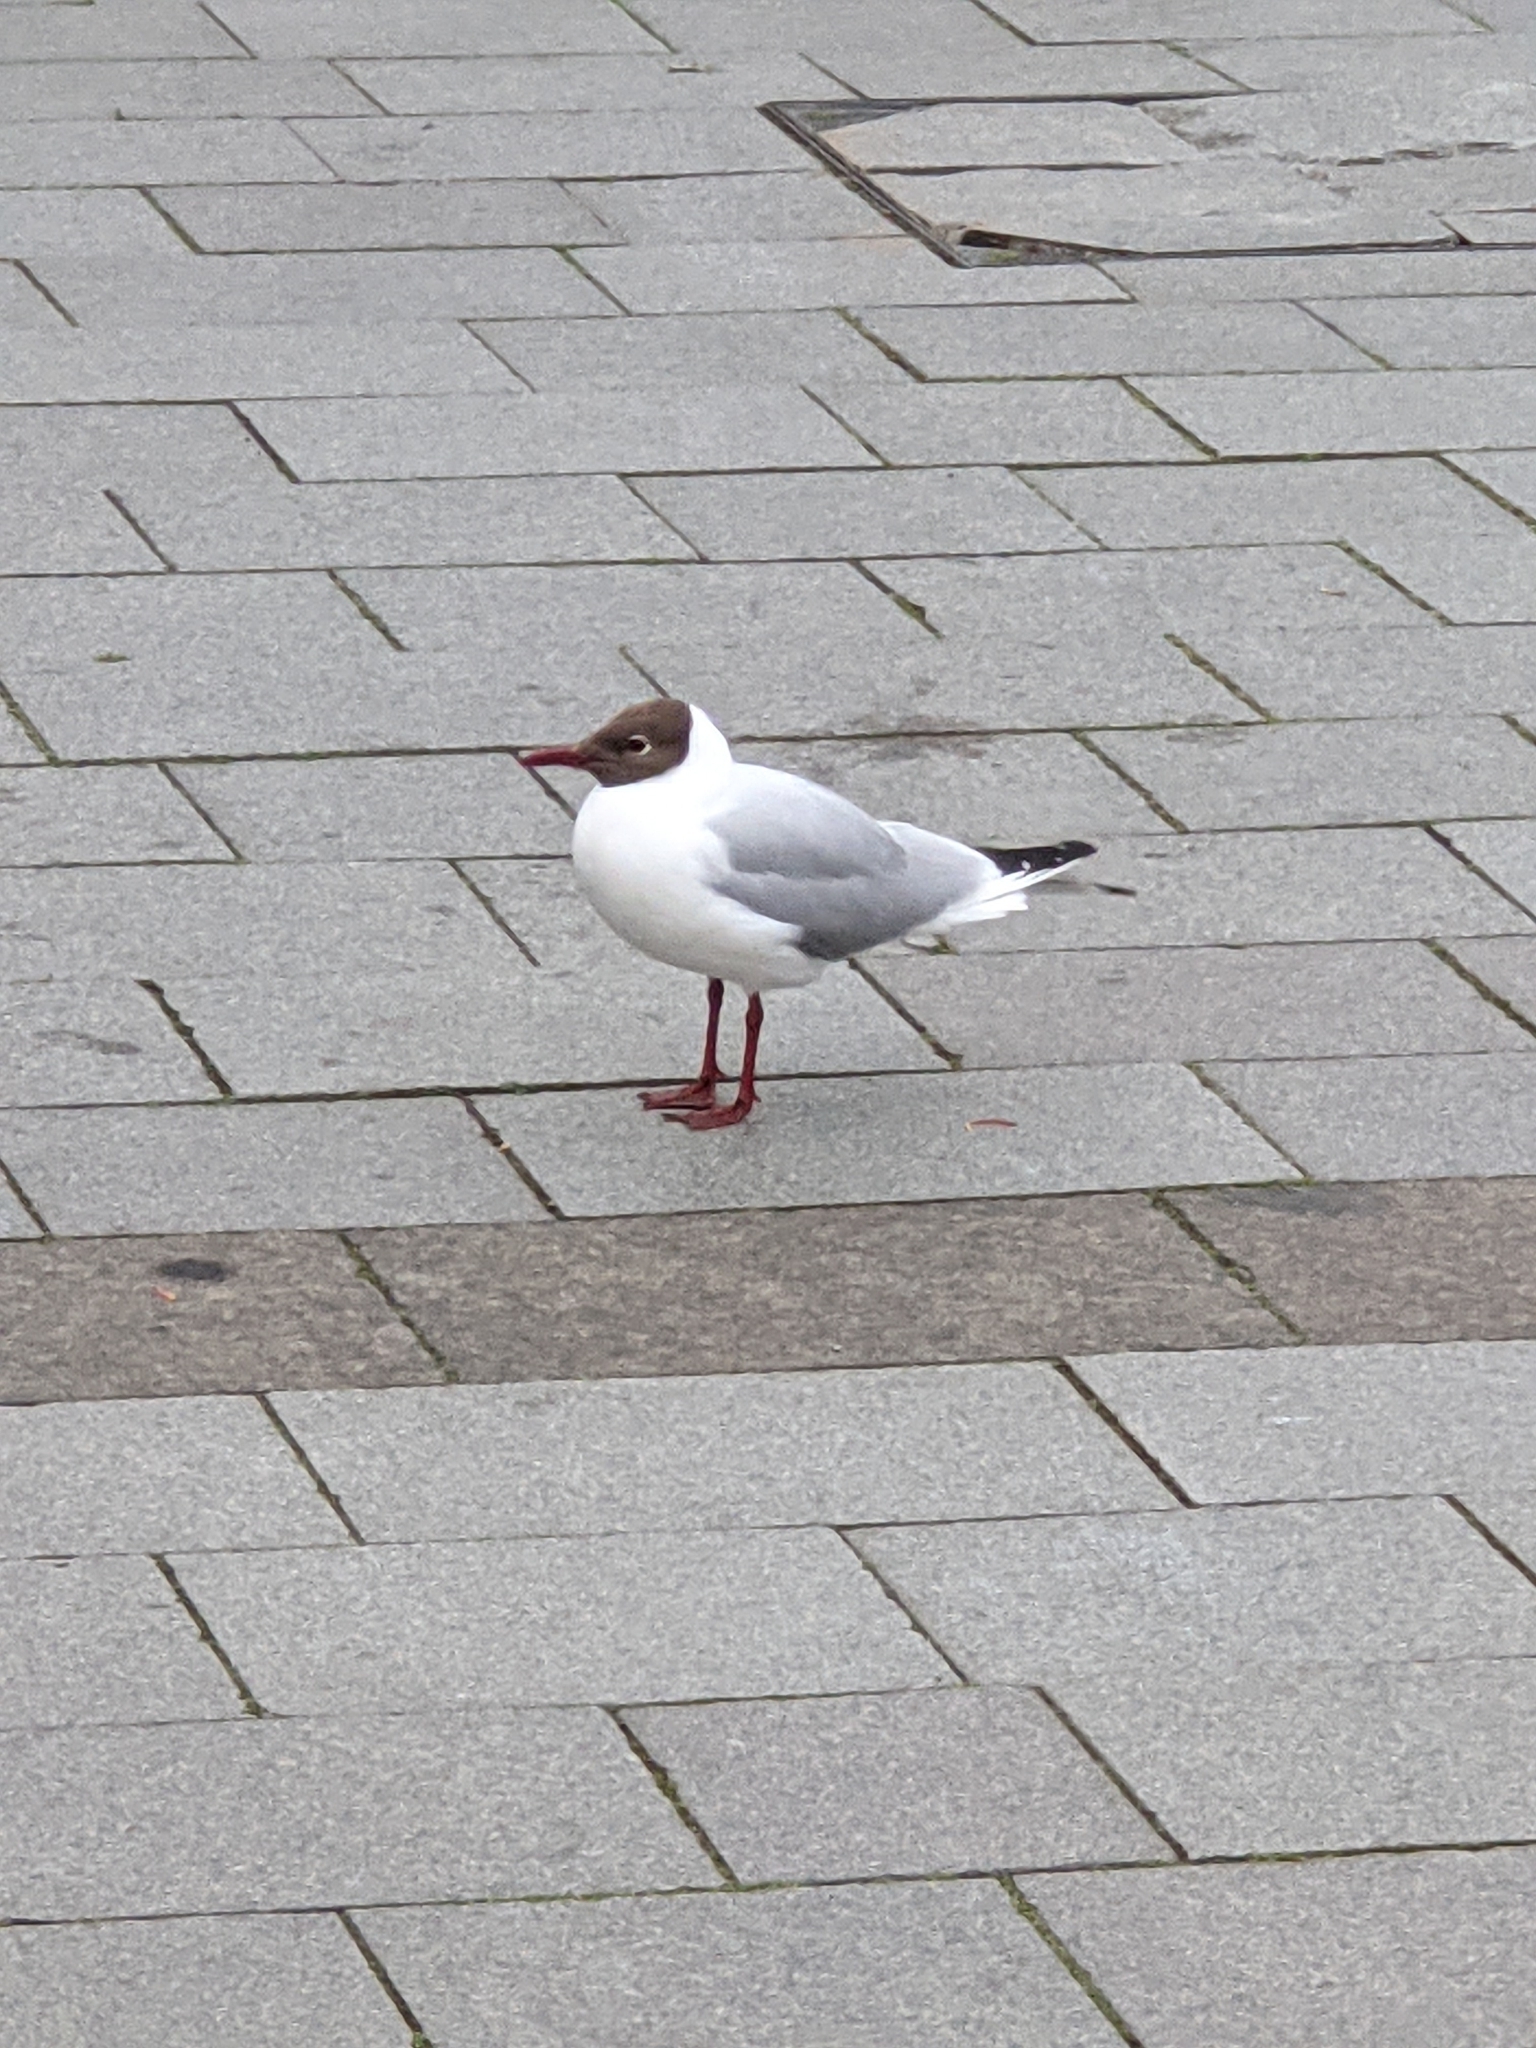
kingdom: Animalia
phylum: Chordata
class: Aves
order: Charadriiformes
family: Laridae
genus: Chroicocephalus
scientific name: Chroicocephalus ridibundus
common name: Black-headed gull
